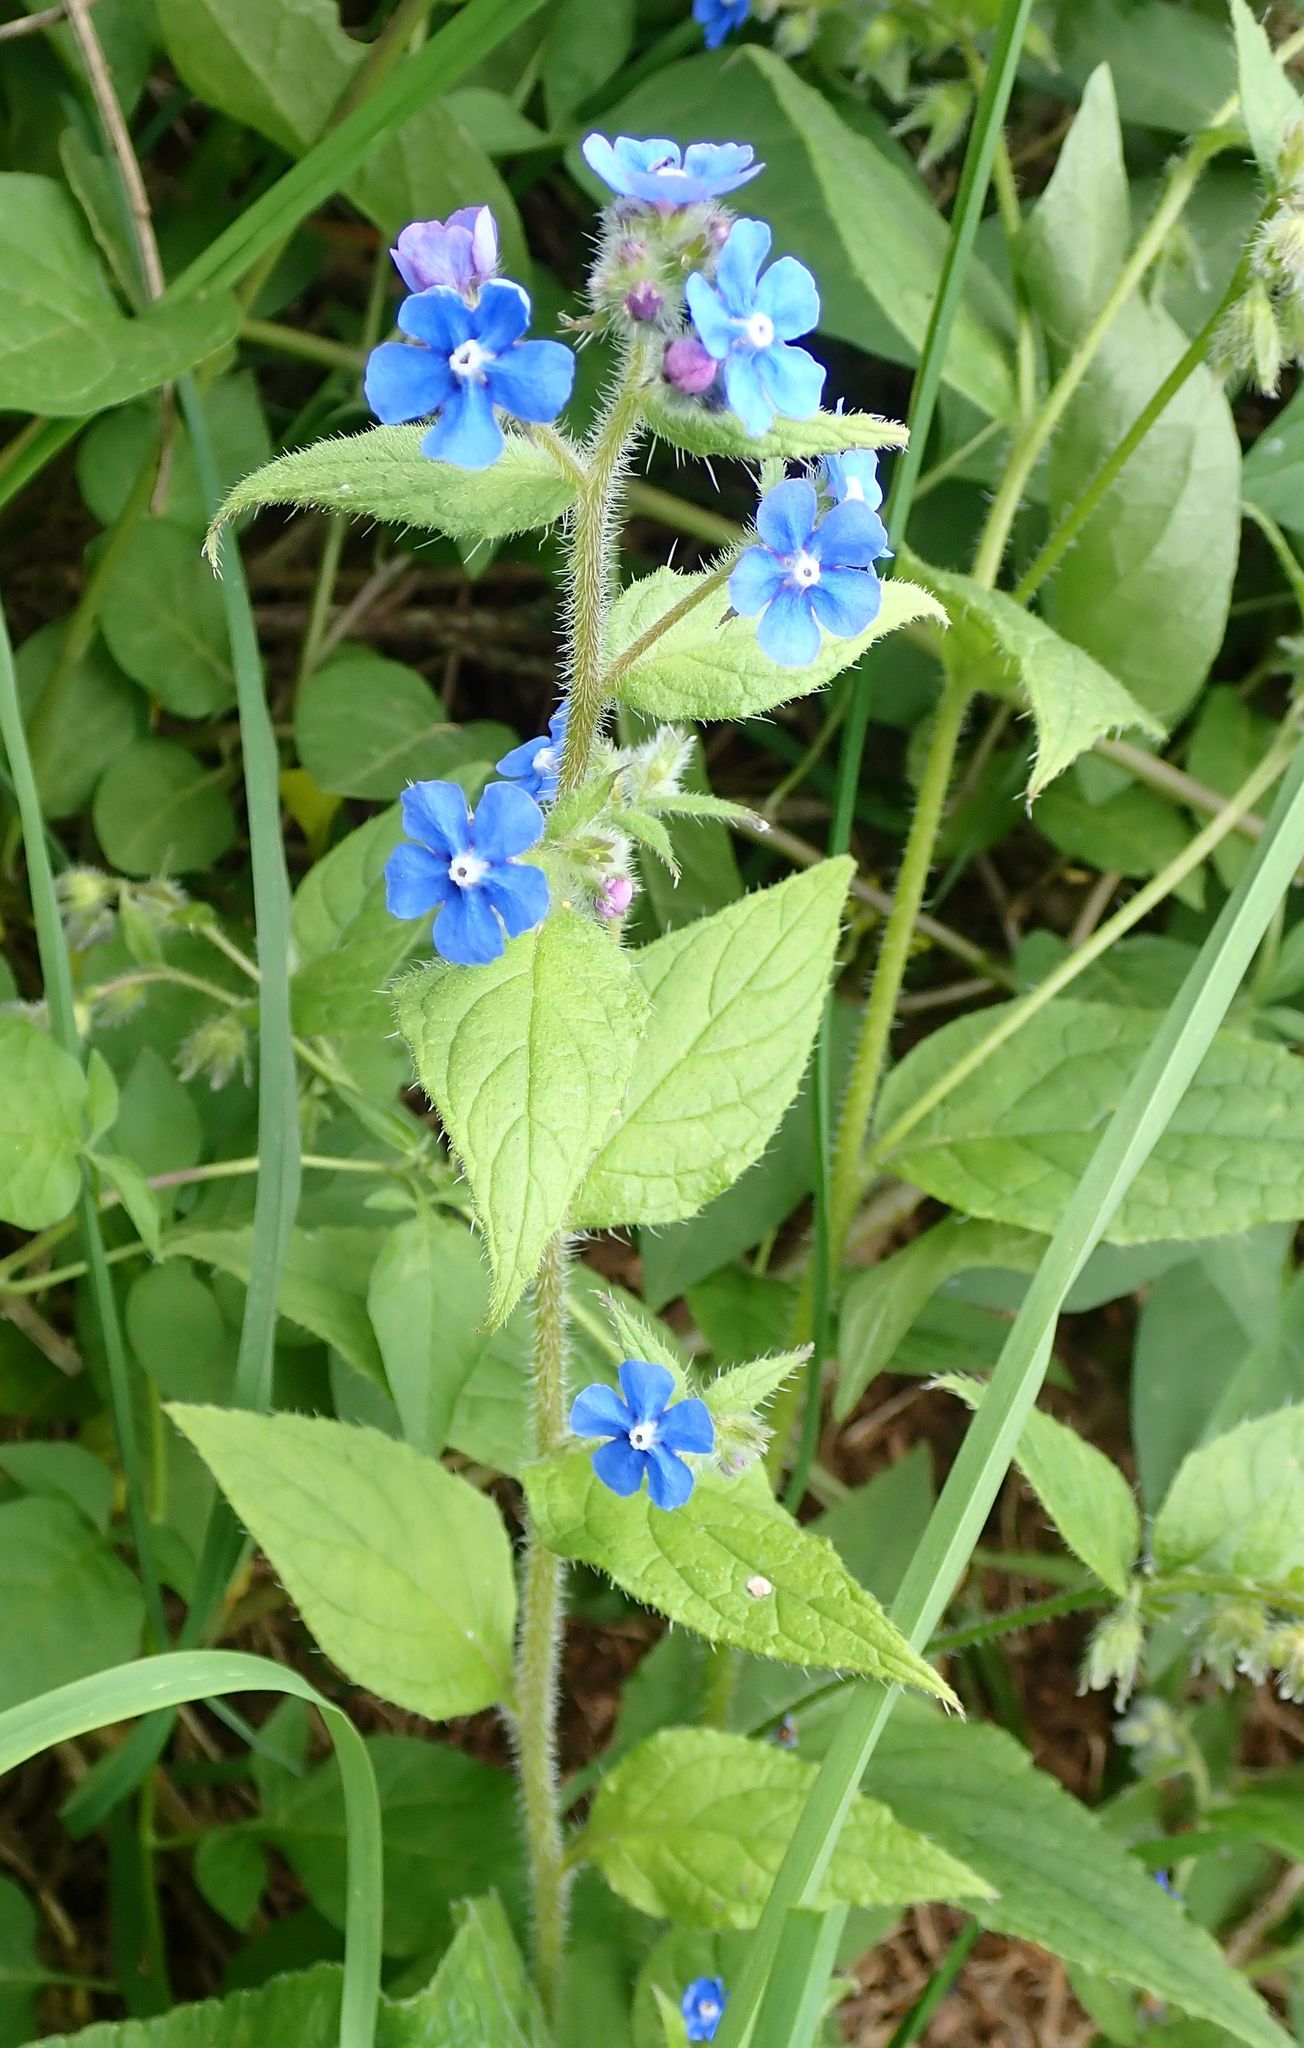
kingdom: Plantae
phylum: Tracheophyta
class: Magnoliopsida
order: Boraginales
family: Boraginaceae
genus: Pentaglottis
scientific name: Pentaglottis sempervirens
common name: Green alkanet
